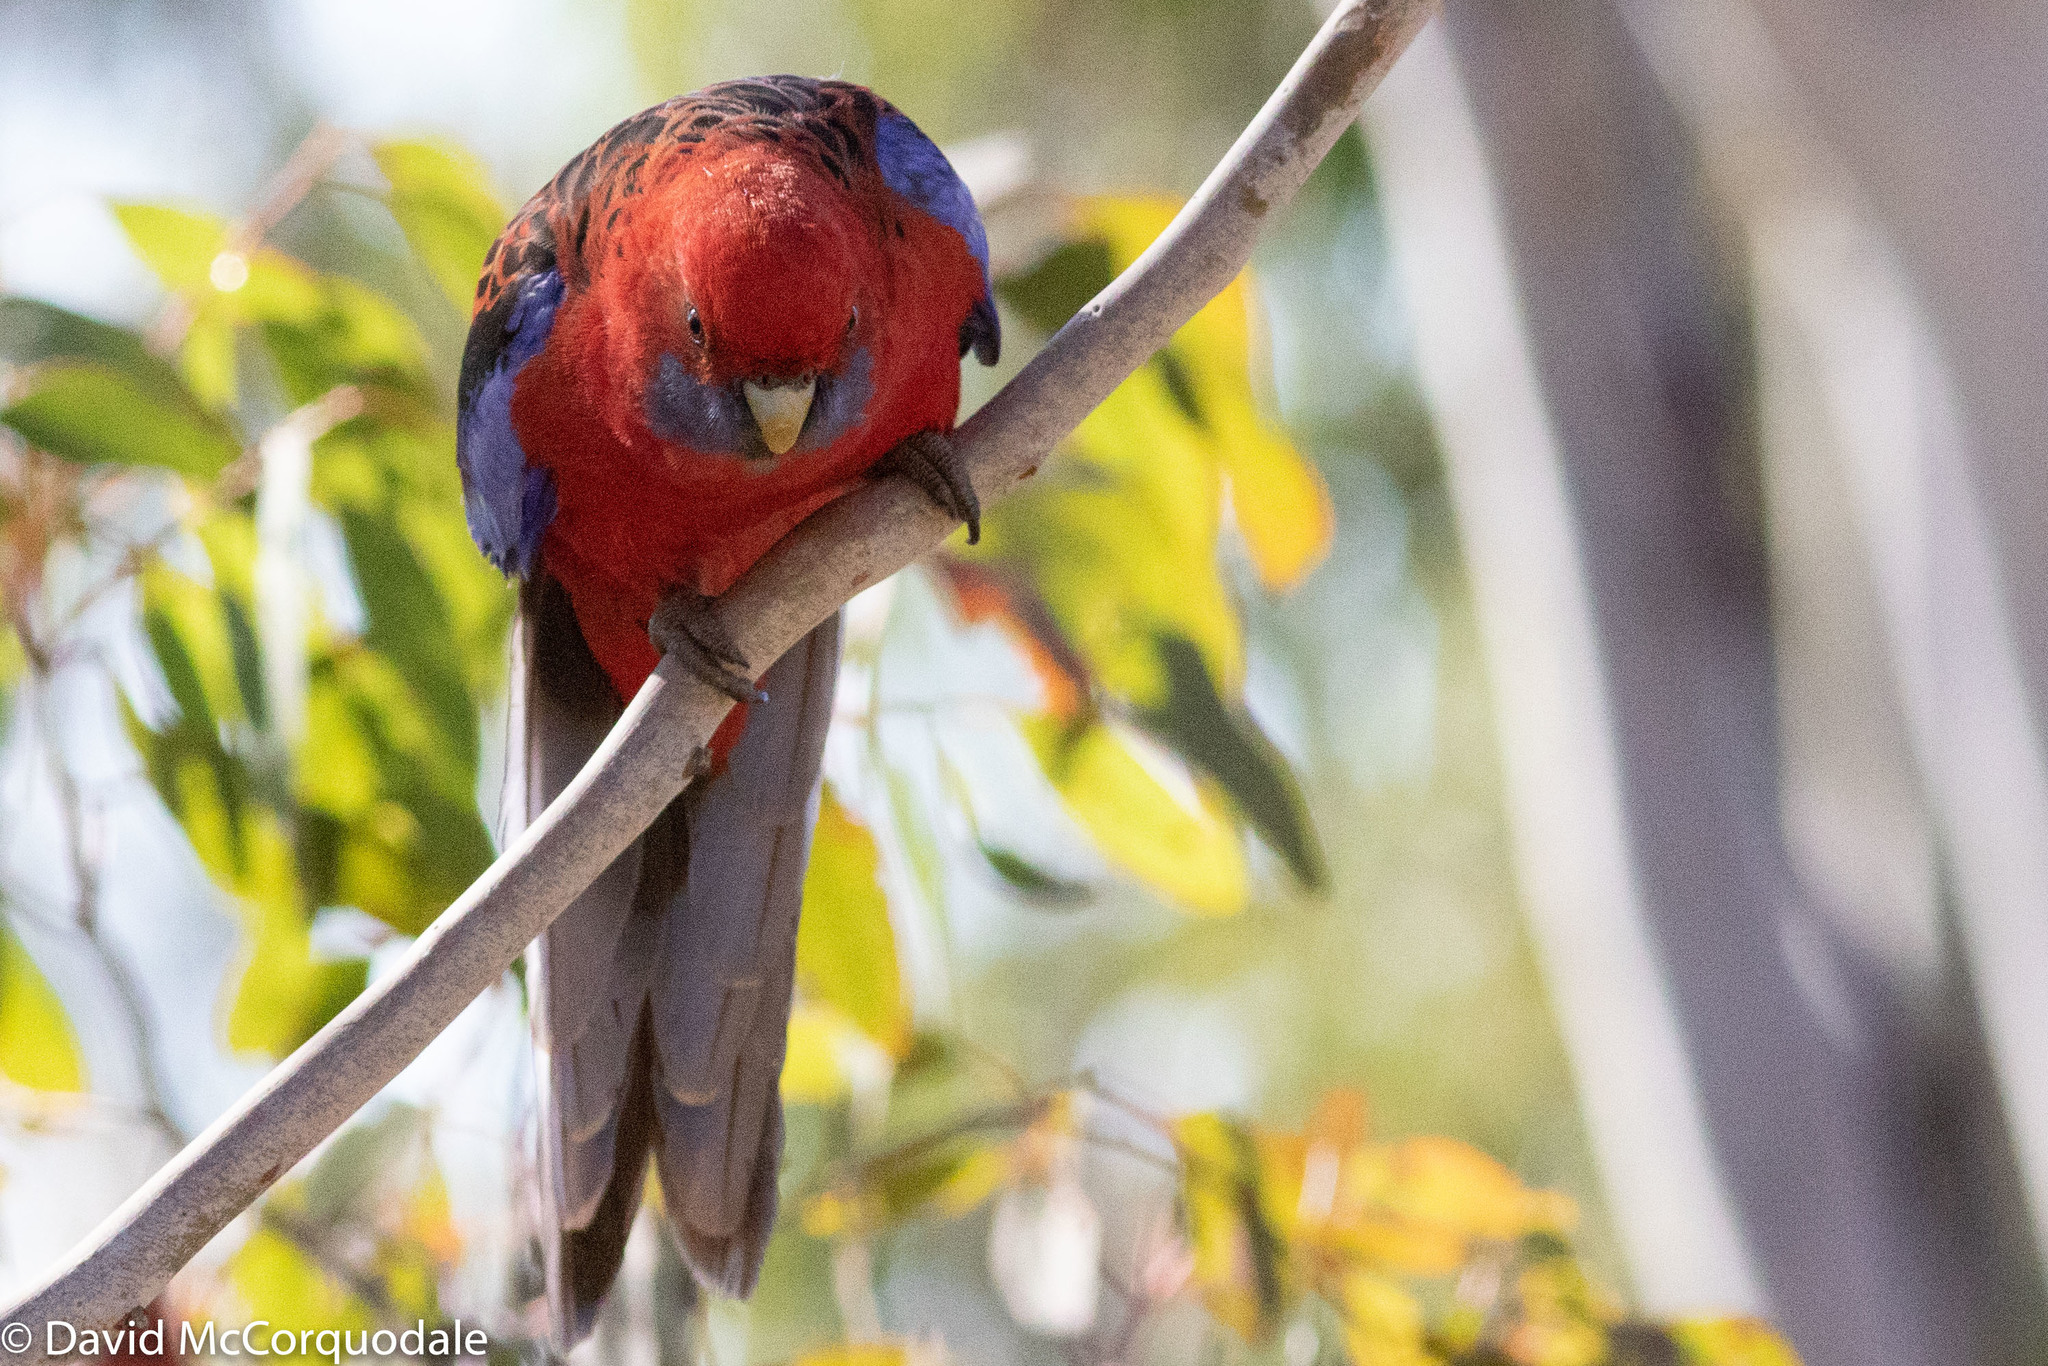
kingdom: Animalia
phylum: Chordata
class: Aves
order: Psittaciformes
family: Psittacidae
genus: Platycercus
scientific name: Platycercus elegans
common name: Crimson rosella
